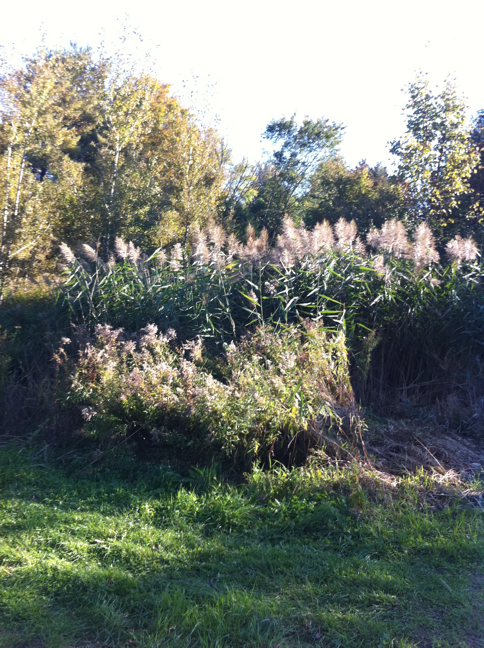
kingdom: Plantae
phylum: Tracheophyta
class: Liliopsida
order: Poales
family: Poaceae
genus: Phragmites
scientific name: Phragmites australis
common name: Common reed
